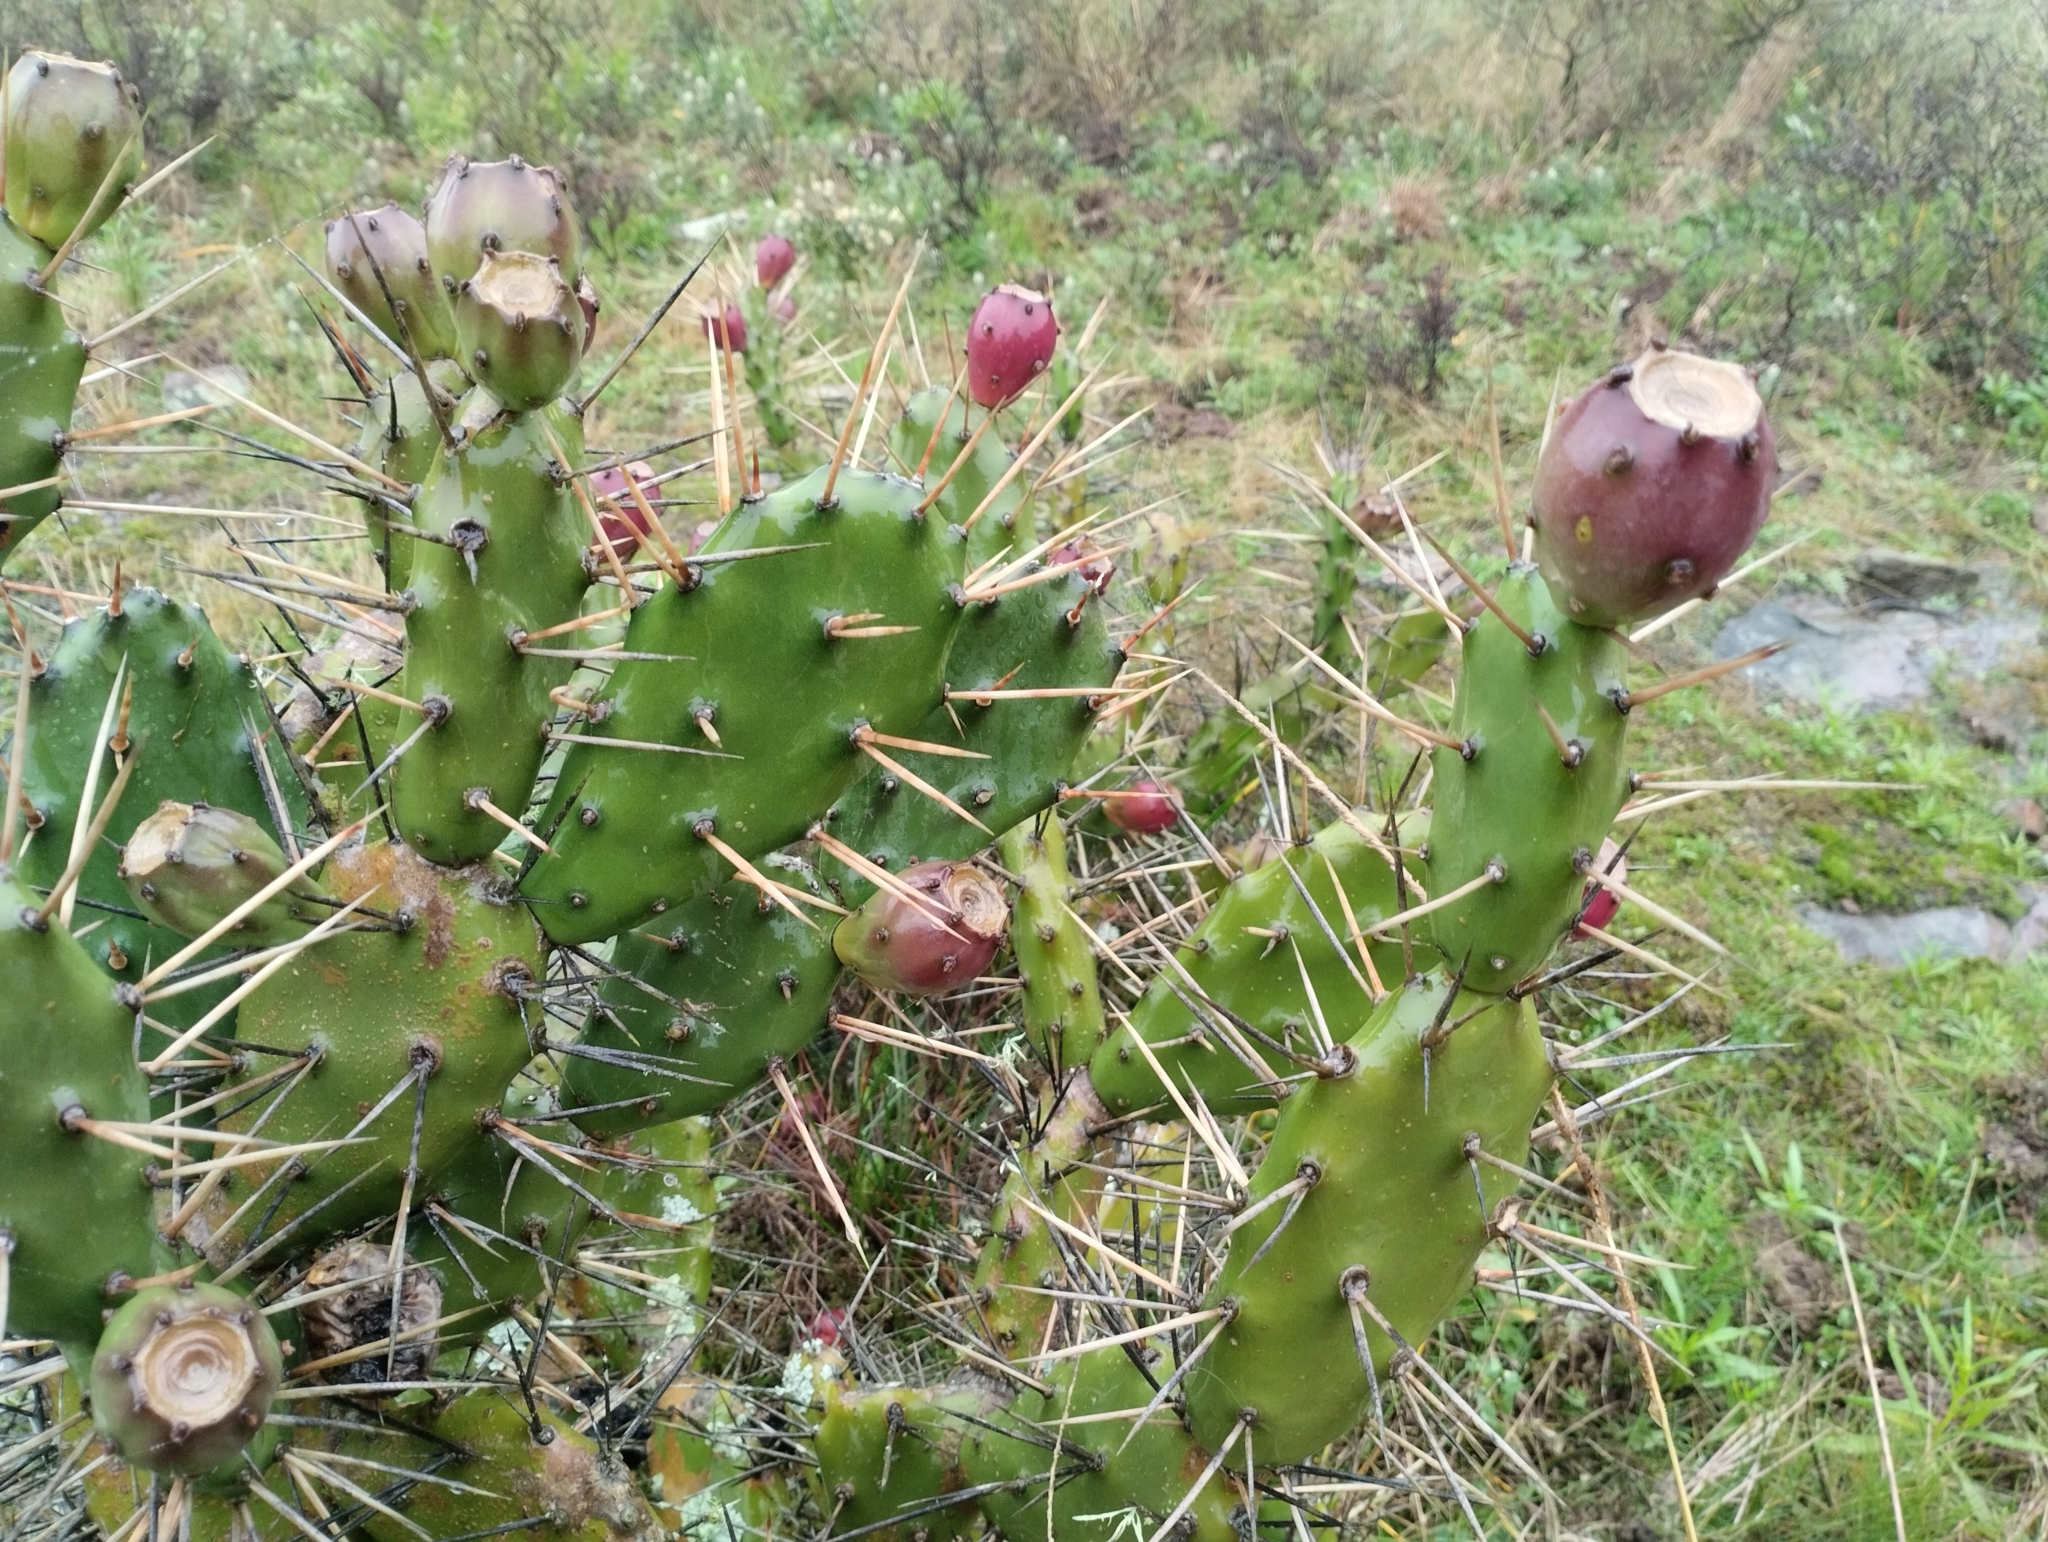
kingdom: Plantae
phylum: Tracheophyta
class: Magnoliopsida
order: Caryophyllales
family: Cactaceae
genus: Opuntia
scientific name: Opuntia elata
